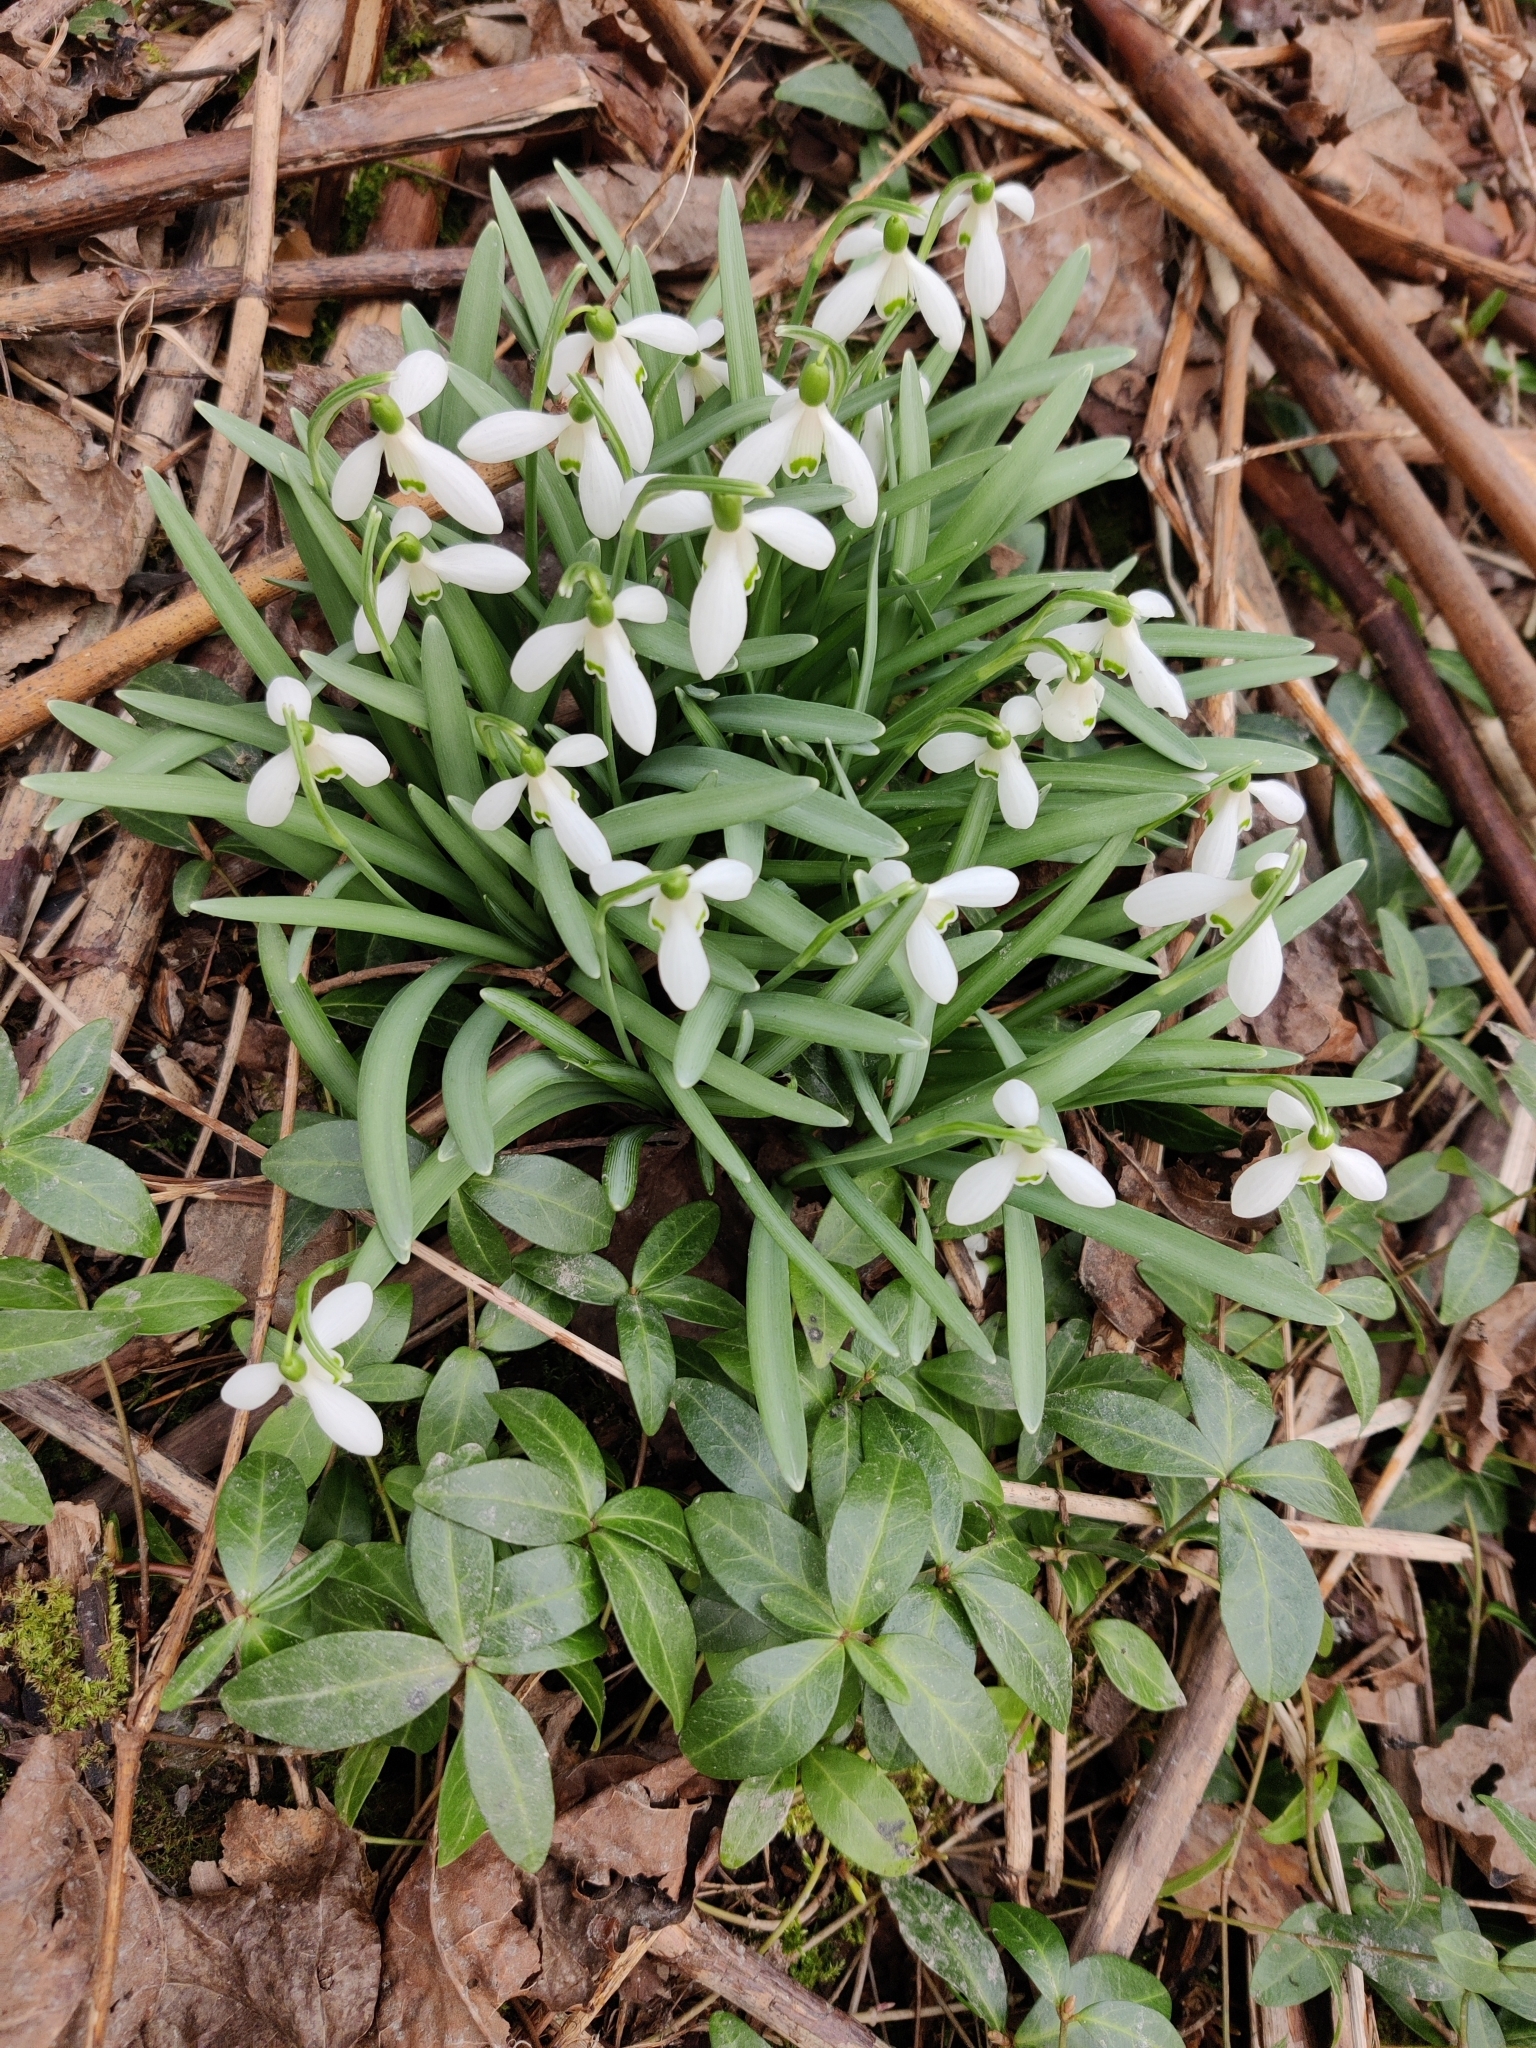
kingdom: Plantae
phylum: Tracheophyta
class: Liliopsida
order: Asparagales
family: Amaryllidaceae
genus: Galanthus
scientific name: Galanthus nivalis
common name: Snowdrop
